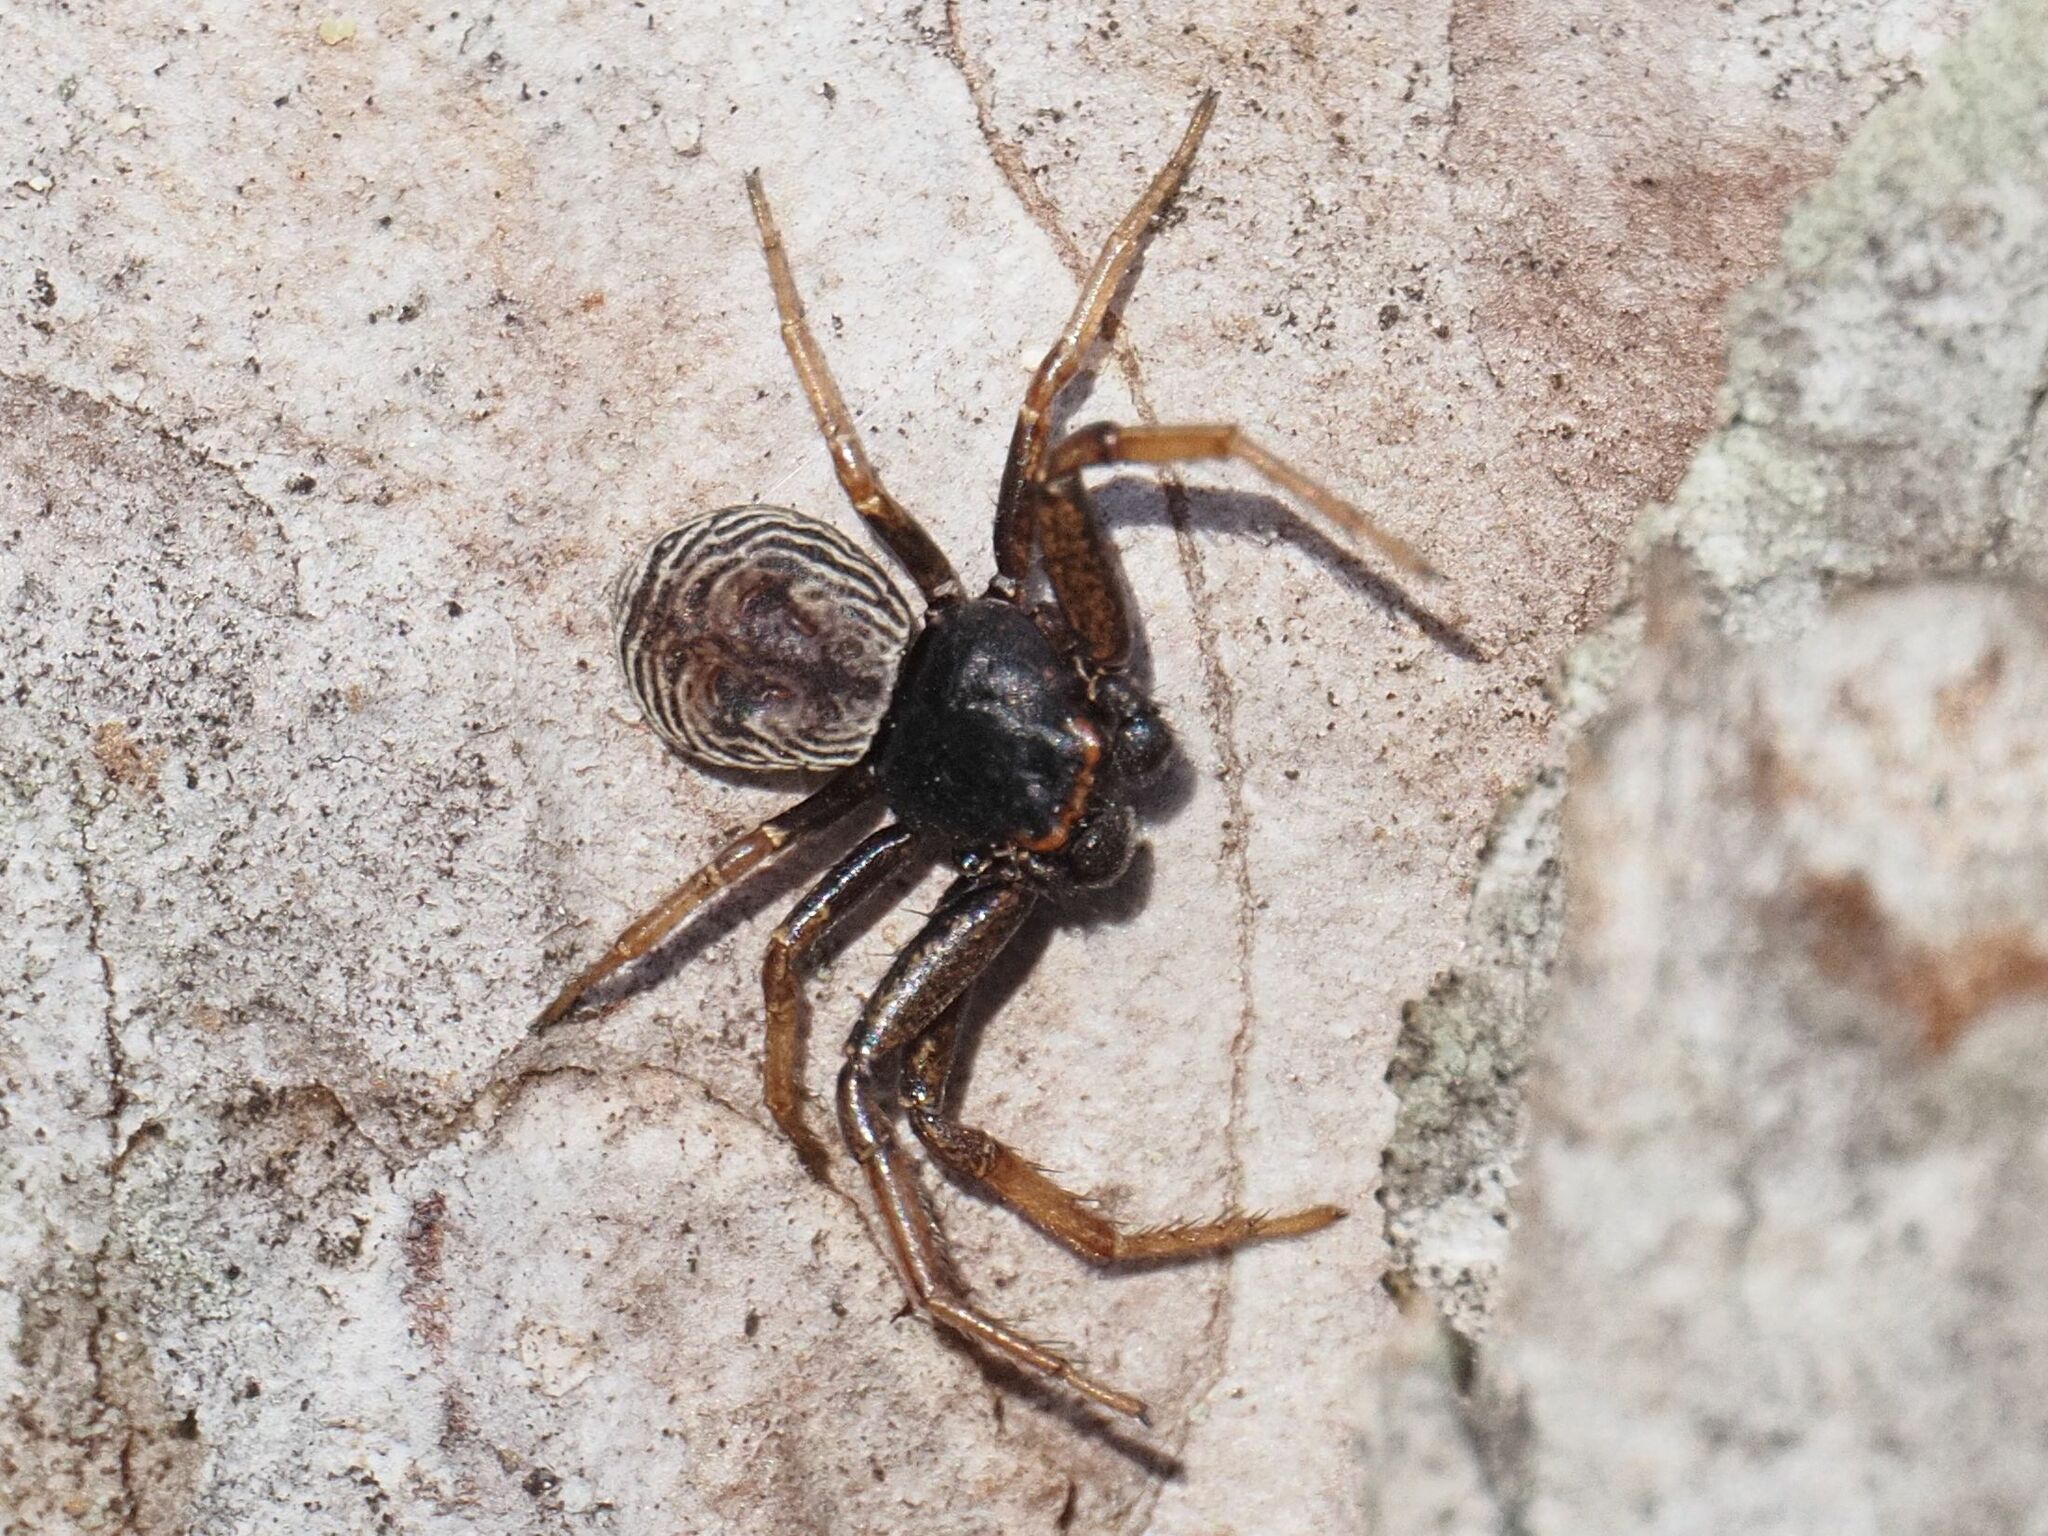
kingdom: Animalia
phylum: Arthropoda
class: Arachnida
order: Araneae
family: Thomisidae
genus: Coriarachne
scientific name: Coriarachne depressa
